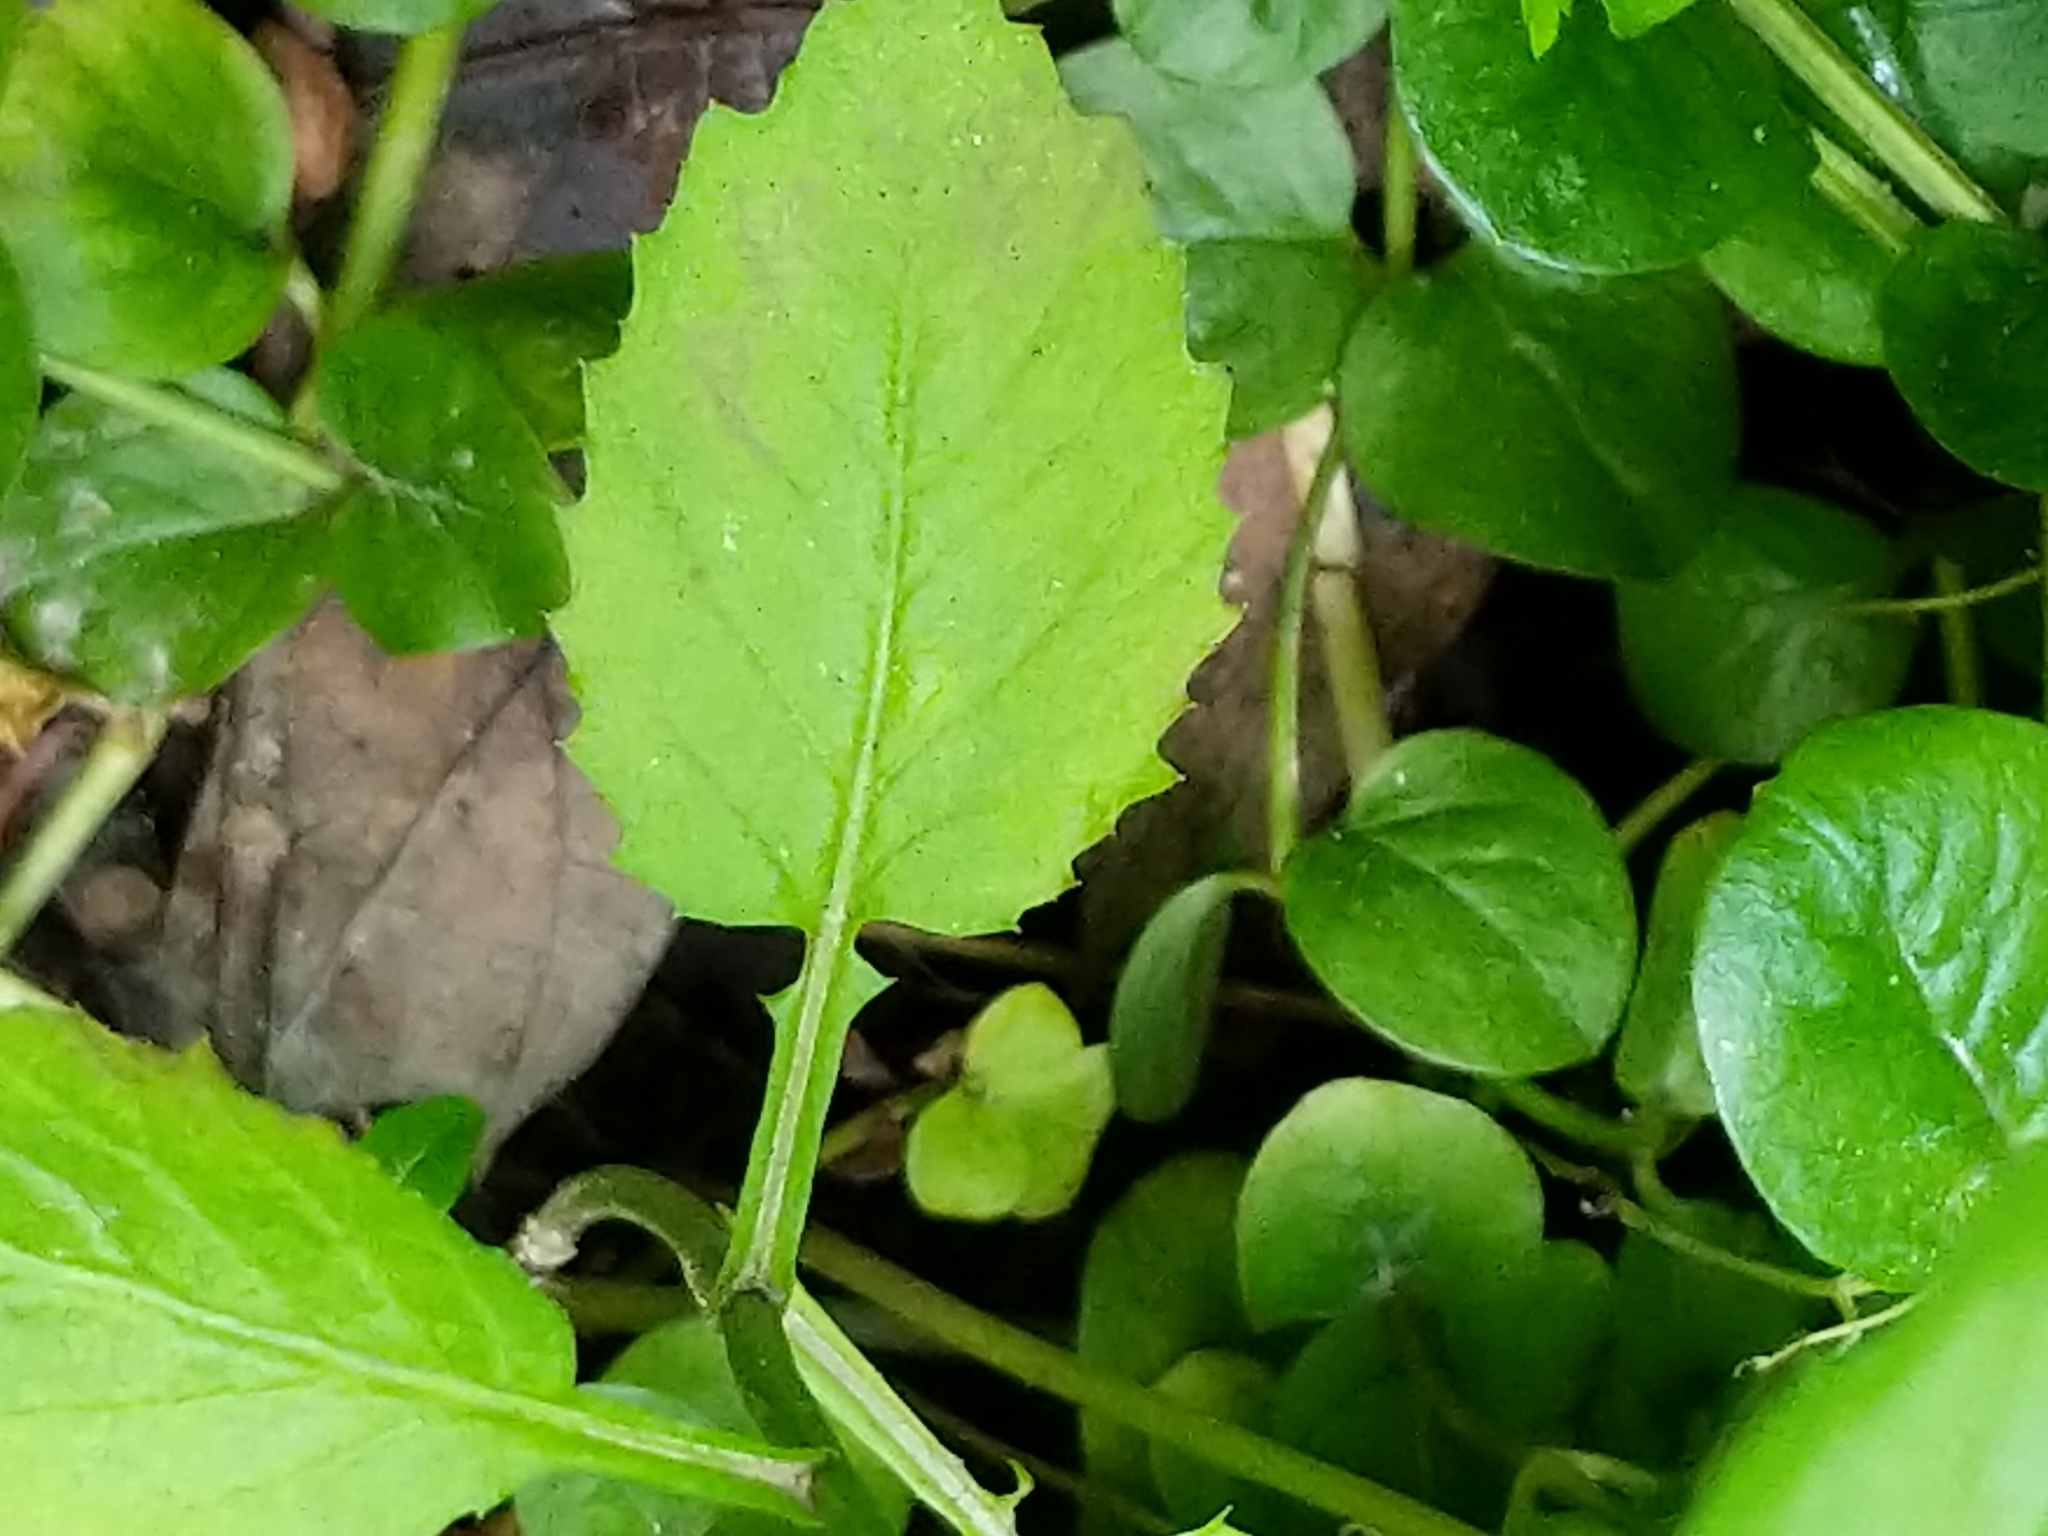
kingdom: Plantae
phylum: Tracheophyta
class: Magnoliopsida
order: Brassicales
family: Brassicaceae
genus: Iodanthus
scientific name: Iodanthus pinnatifidus
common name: Violet rocket
